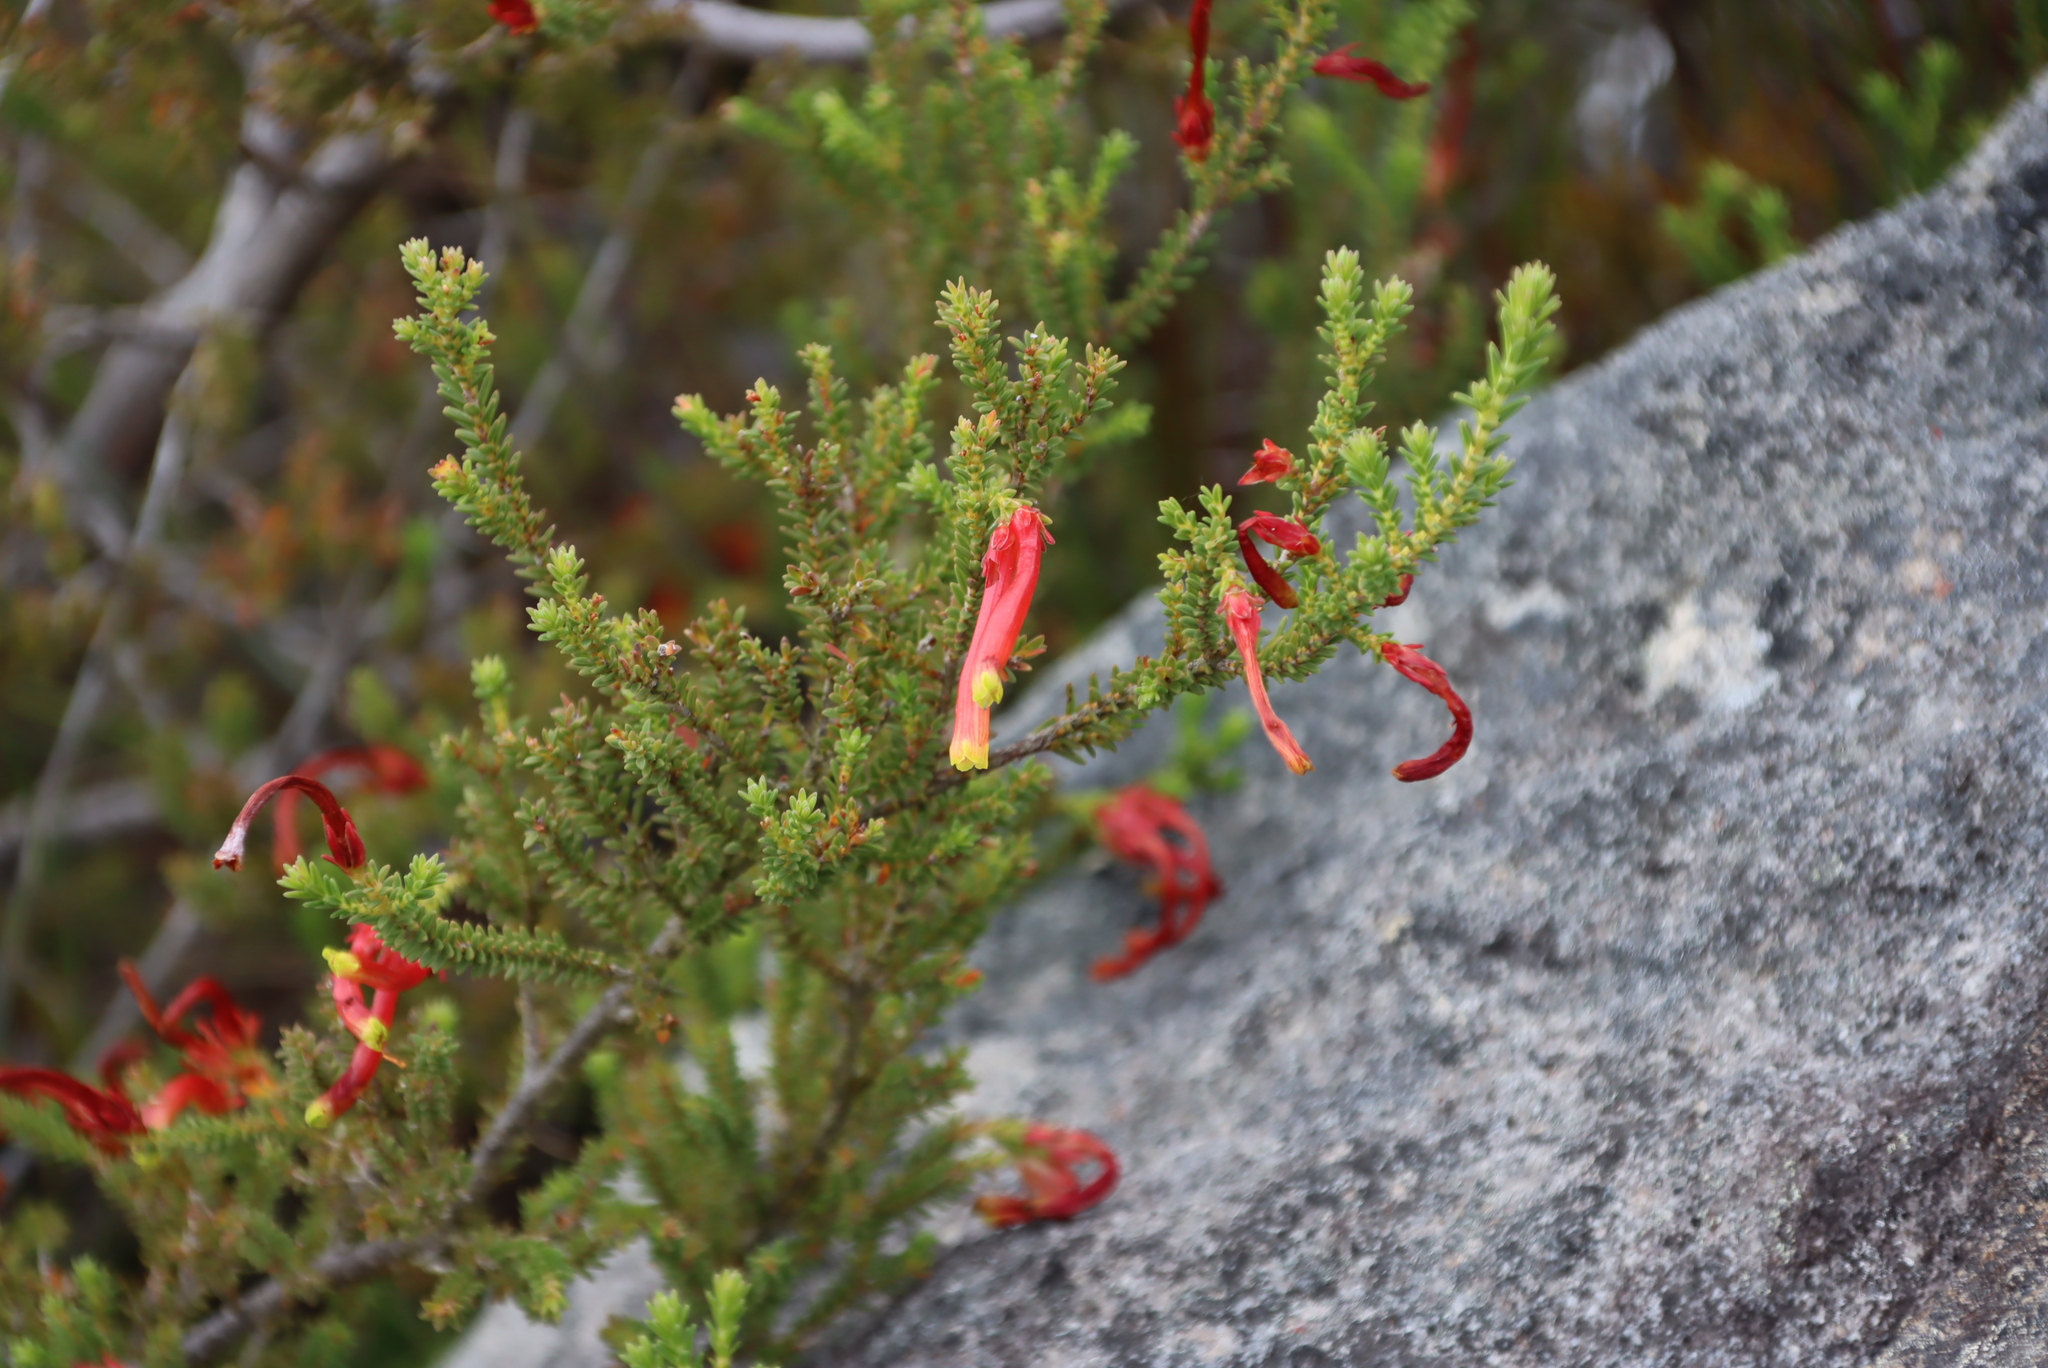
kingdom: Plantae
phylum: Tracheophyta
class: Magnoliopsida
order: Ericales
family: Ericaceae
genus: Erica
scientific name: Erica discolor
